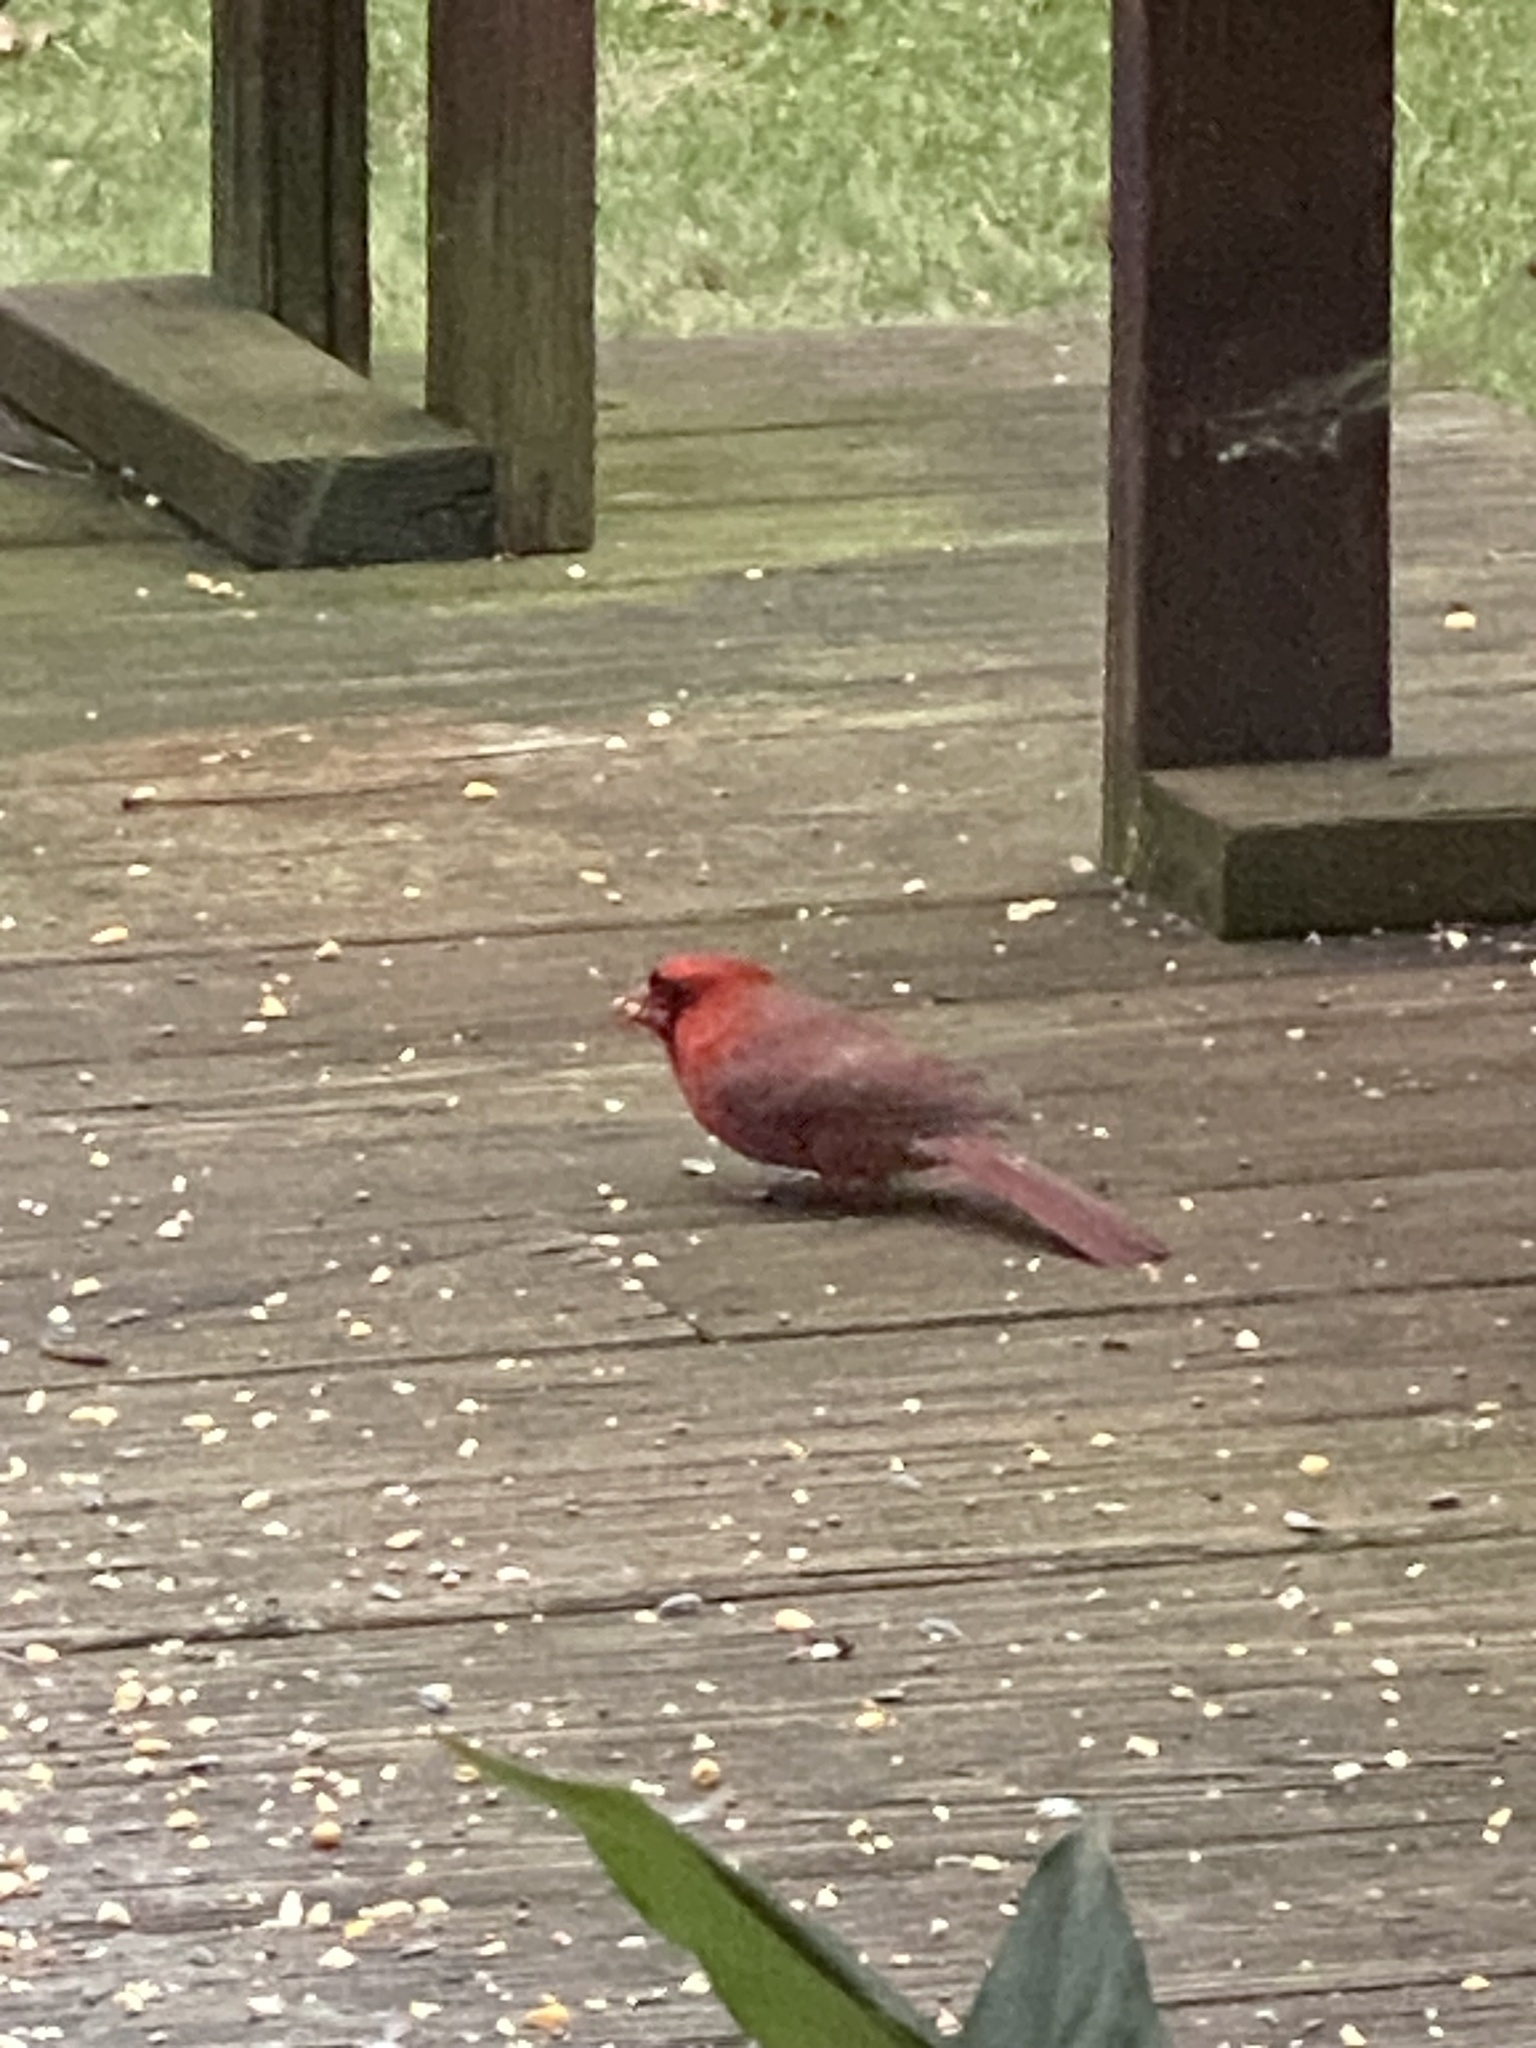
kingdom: Animalia
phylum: Chordata
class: Aves
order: Passeriformes
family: Cardinalidae
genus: Cardinalis
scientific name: Cardinalis cardinalis
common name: Northern cardinal
